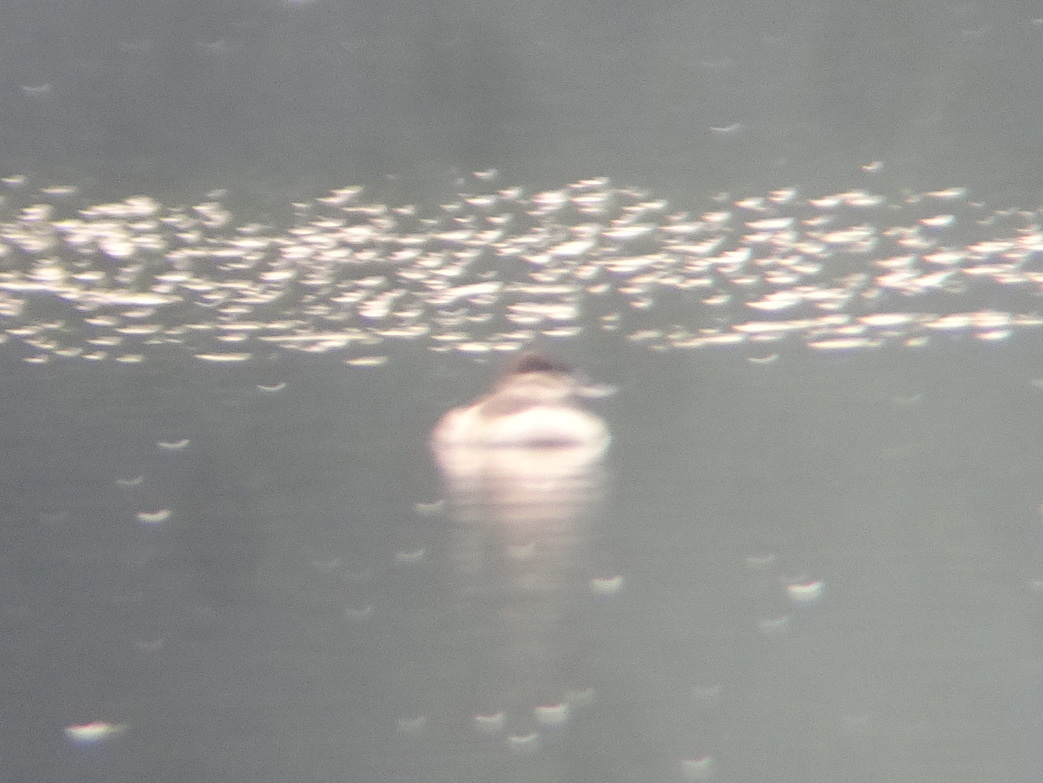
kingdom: Animalia
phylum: Chordata
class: Aves
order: Anseriformes
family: Anatidae
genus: Oxyura
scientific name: Oxyura jamaicensis
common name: Ruddy duck
